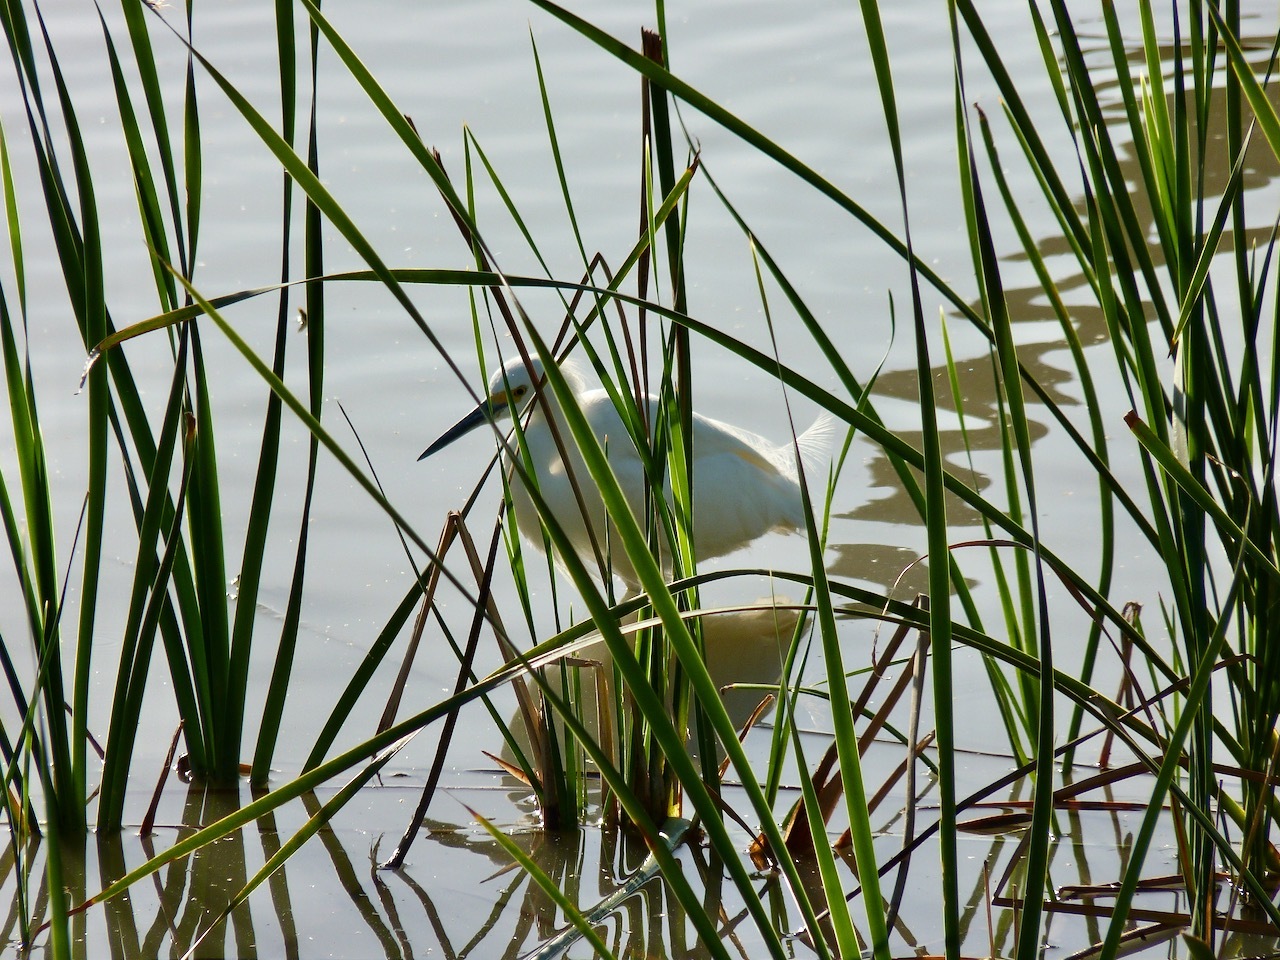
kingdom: Animalia
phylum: Chordata
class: Aves
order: Pelecaniformes
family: Ardeidae
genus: Egretta
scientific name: Egretta thula
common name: Snowy egret
